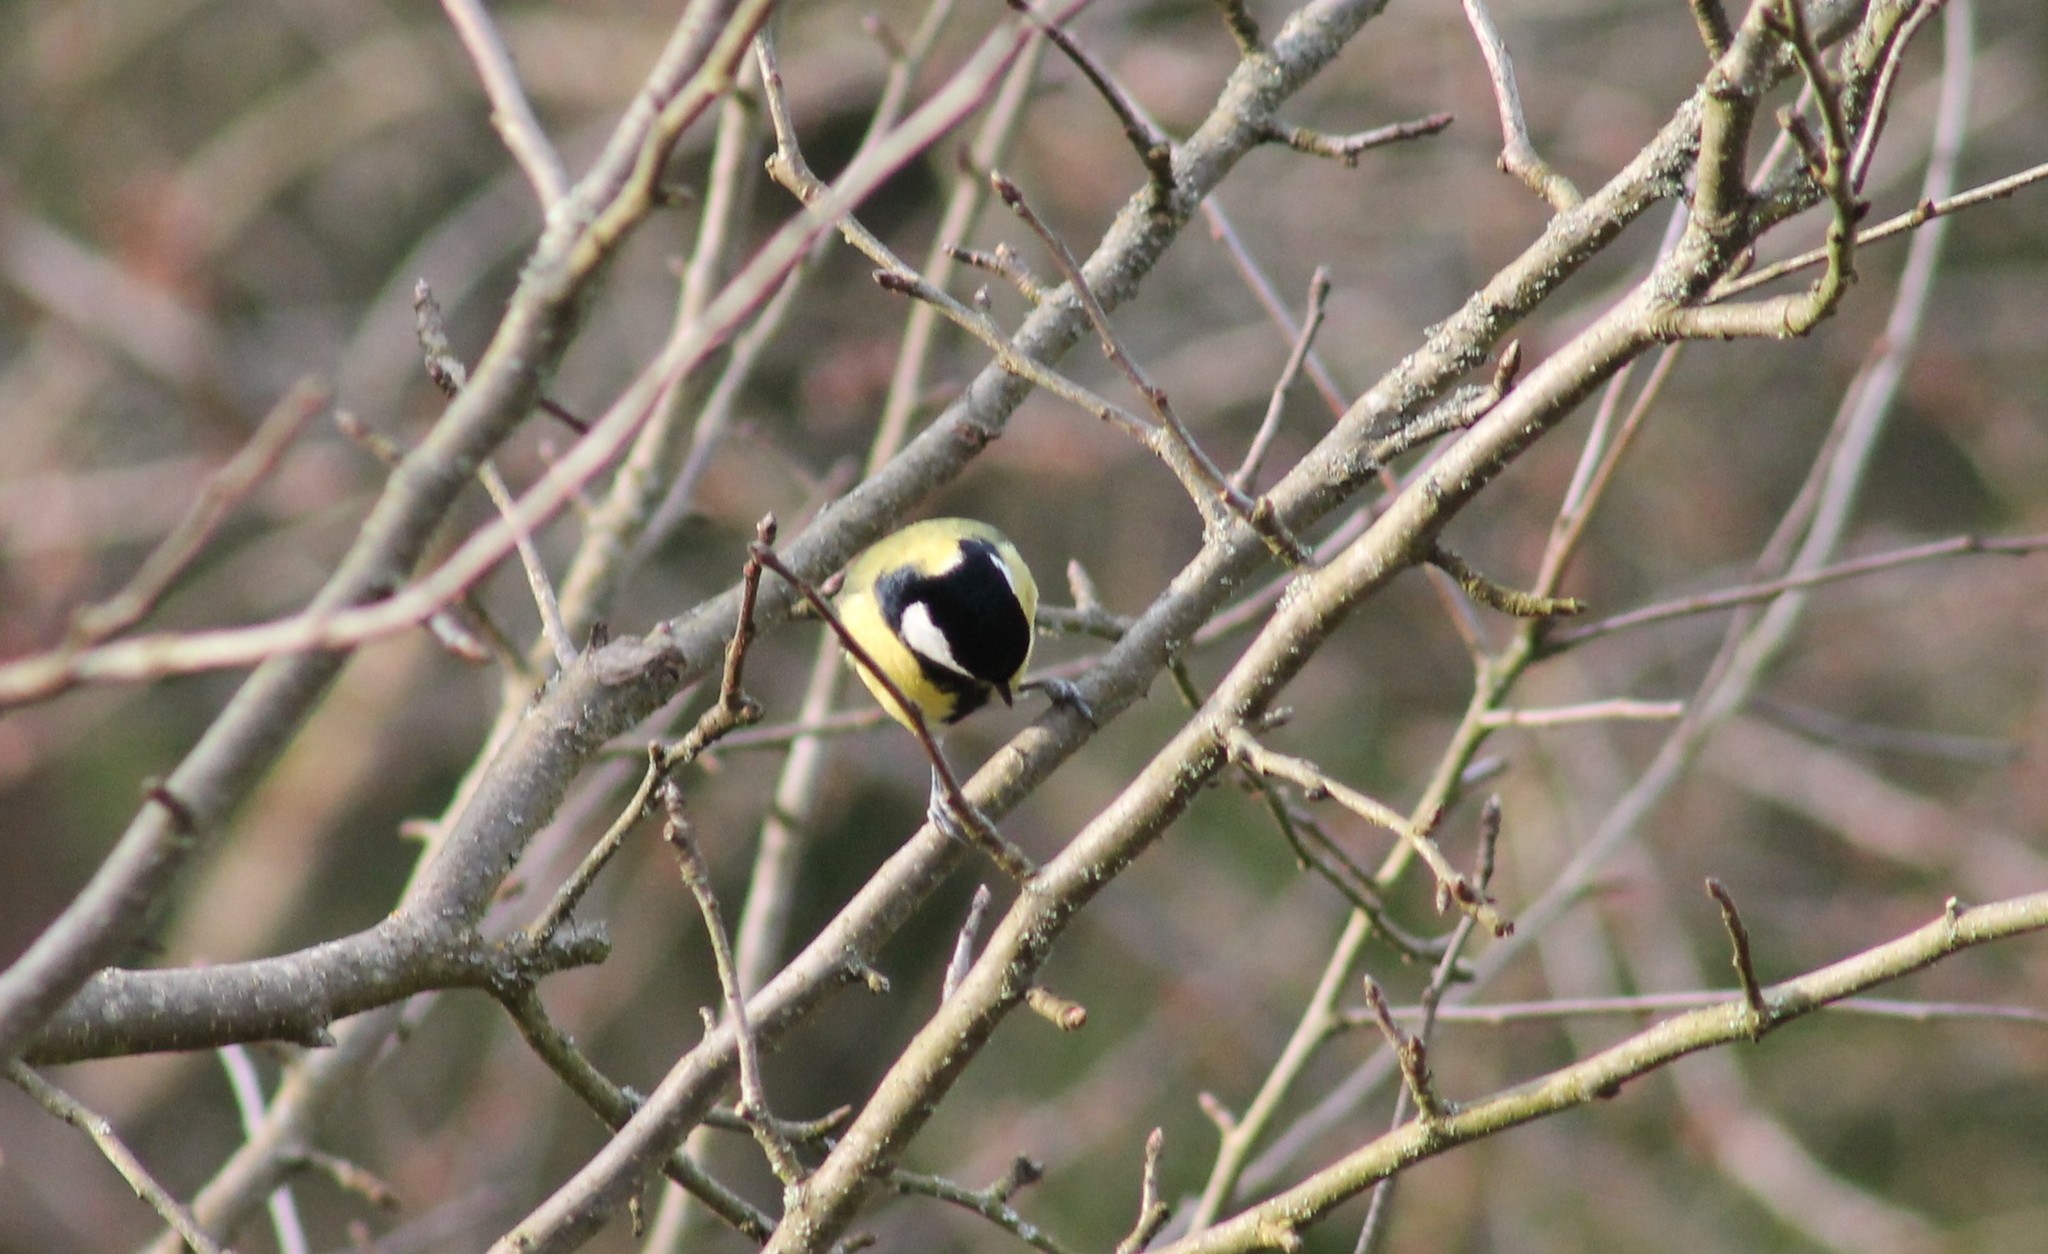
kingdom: Animalia
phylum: Chordata
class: Aves
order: Passeriformes
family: Paridae
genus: Parus
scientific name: Parus major
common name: Great tit
